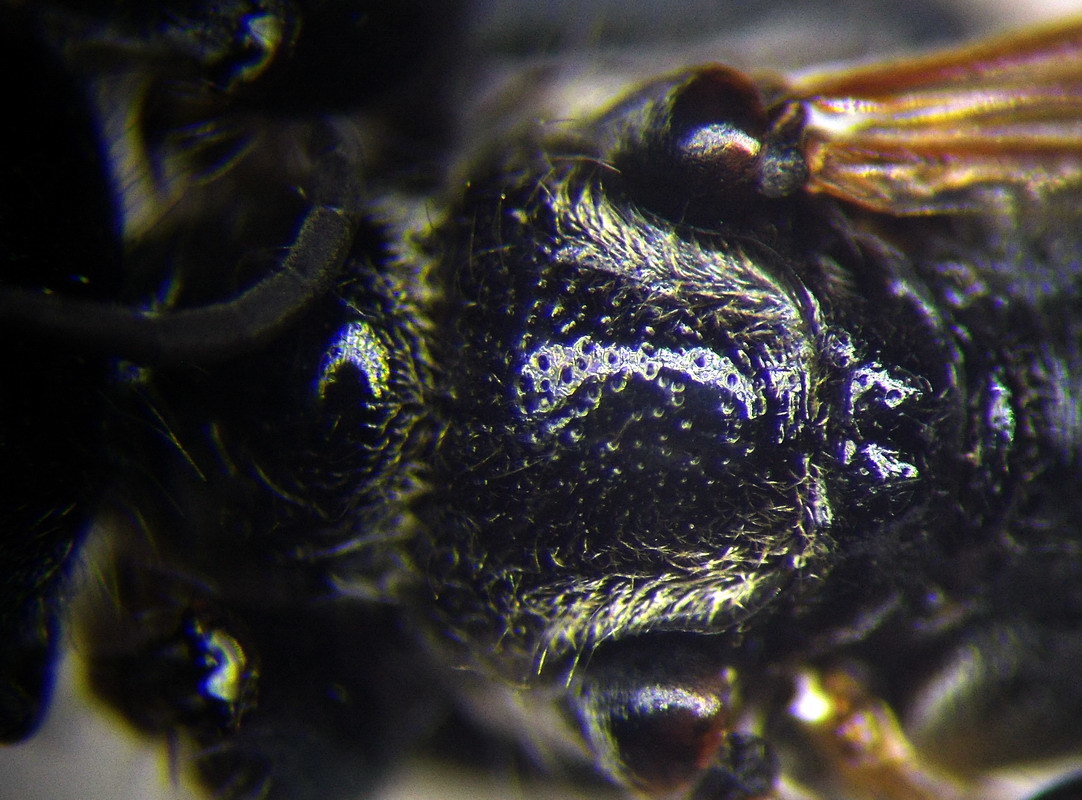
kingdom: Animalia
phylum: Arthropoda
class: Insecta
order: Hymenoptera
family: Sphecidae
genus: Prionyx
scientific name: Prionyx kirbii
